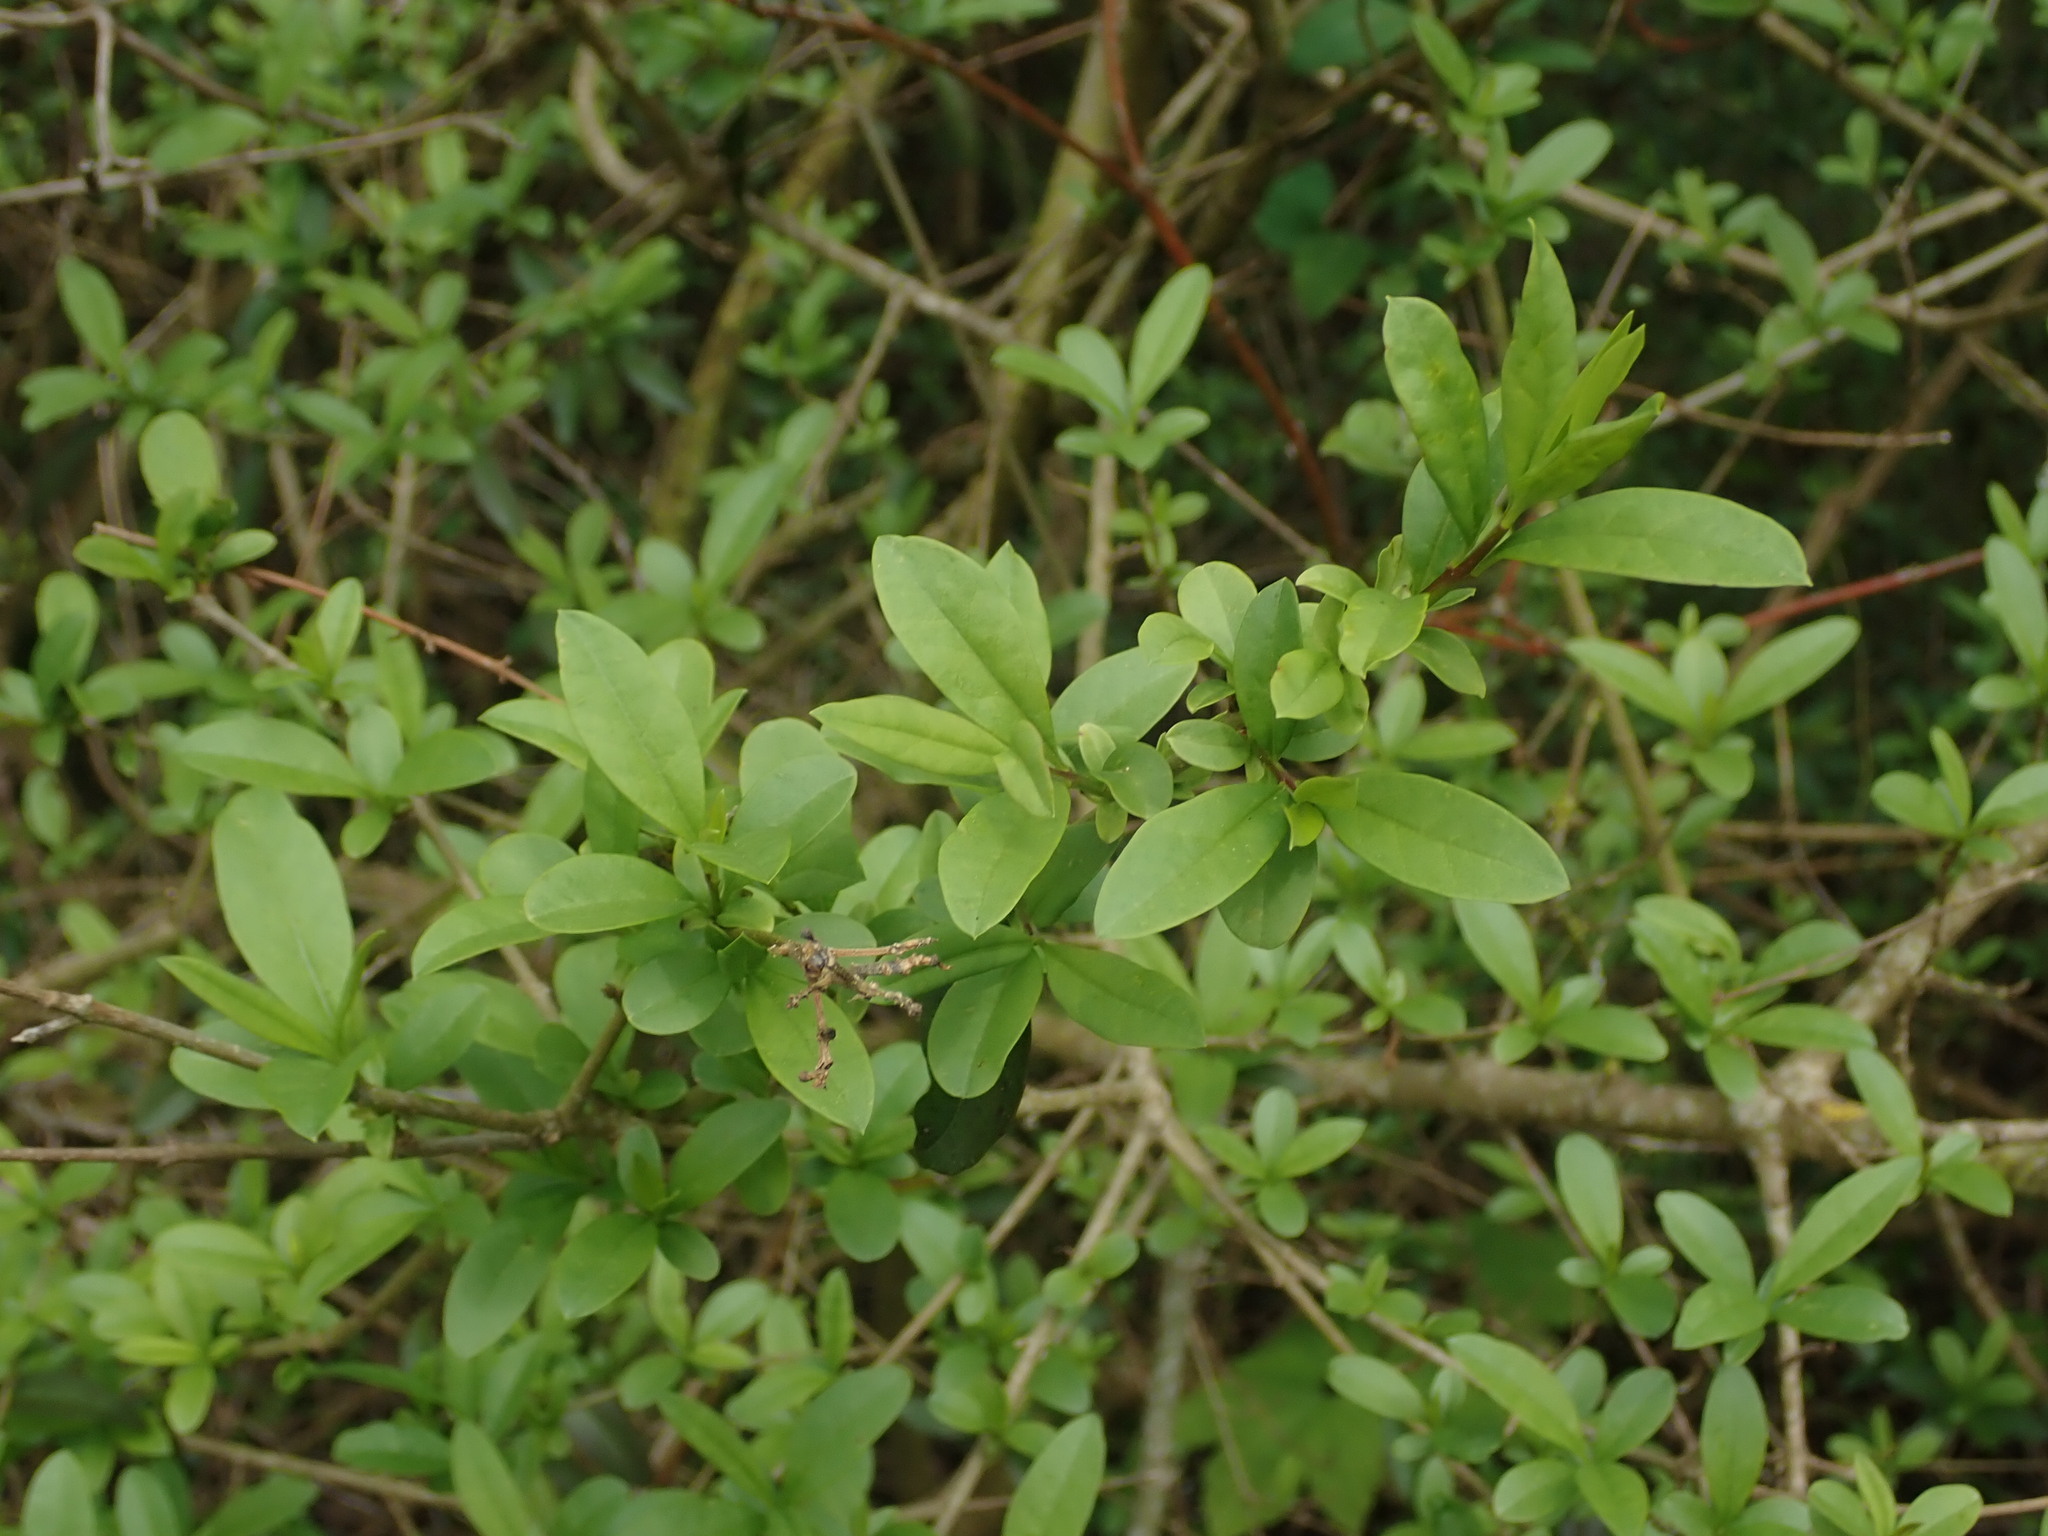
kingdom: Plantae
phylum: Tracheophyta
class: Magnoliopsida
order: Lamiales
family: Oleaceae
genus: Ligustrum
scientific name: Ligustrum vulgare
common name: Wild privet
